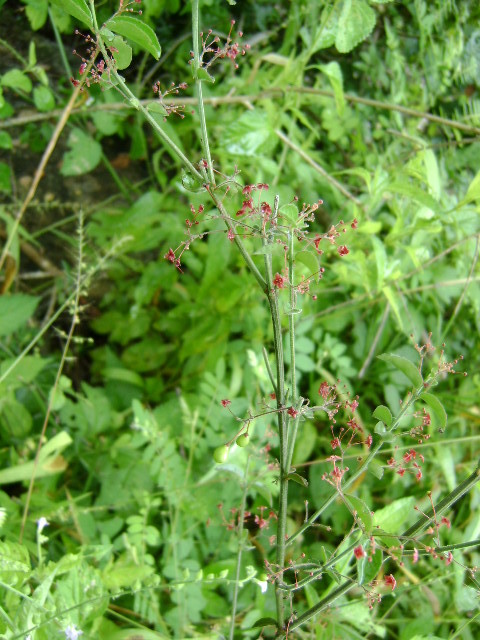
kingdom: Plantae
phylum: Tracheophyta
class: Magnoliopsida
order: Celastrales
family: Celastraceae
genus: Crossopetalum
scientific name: Crossopetalum uragoga
